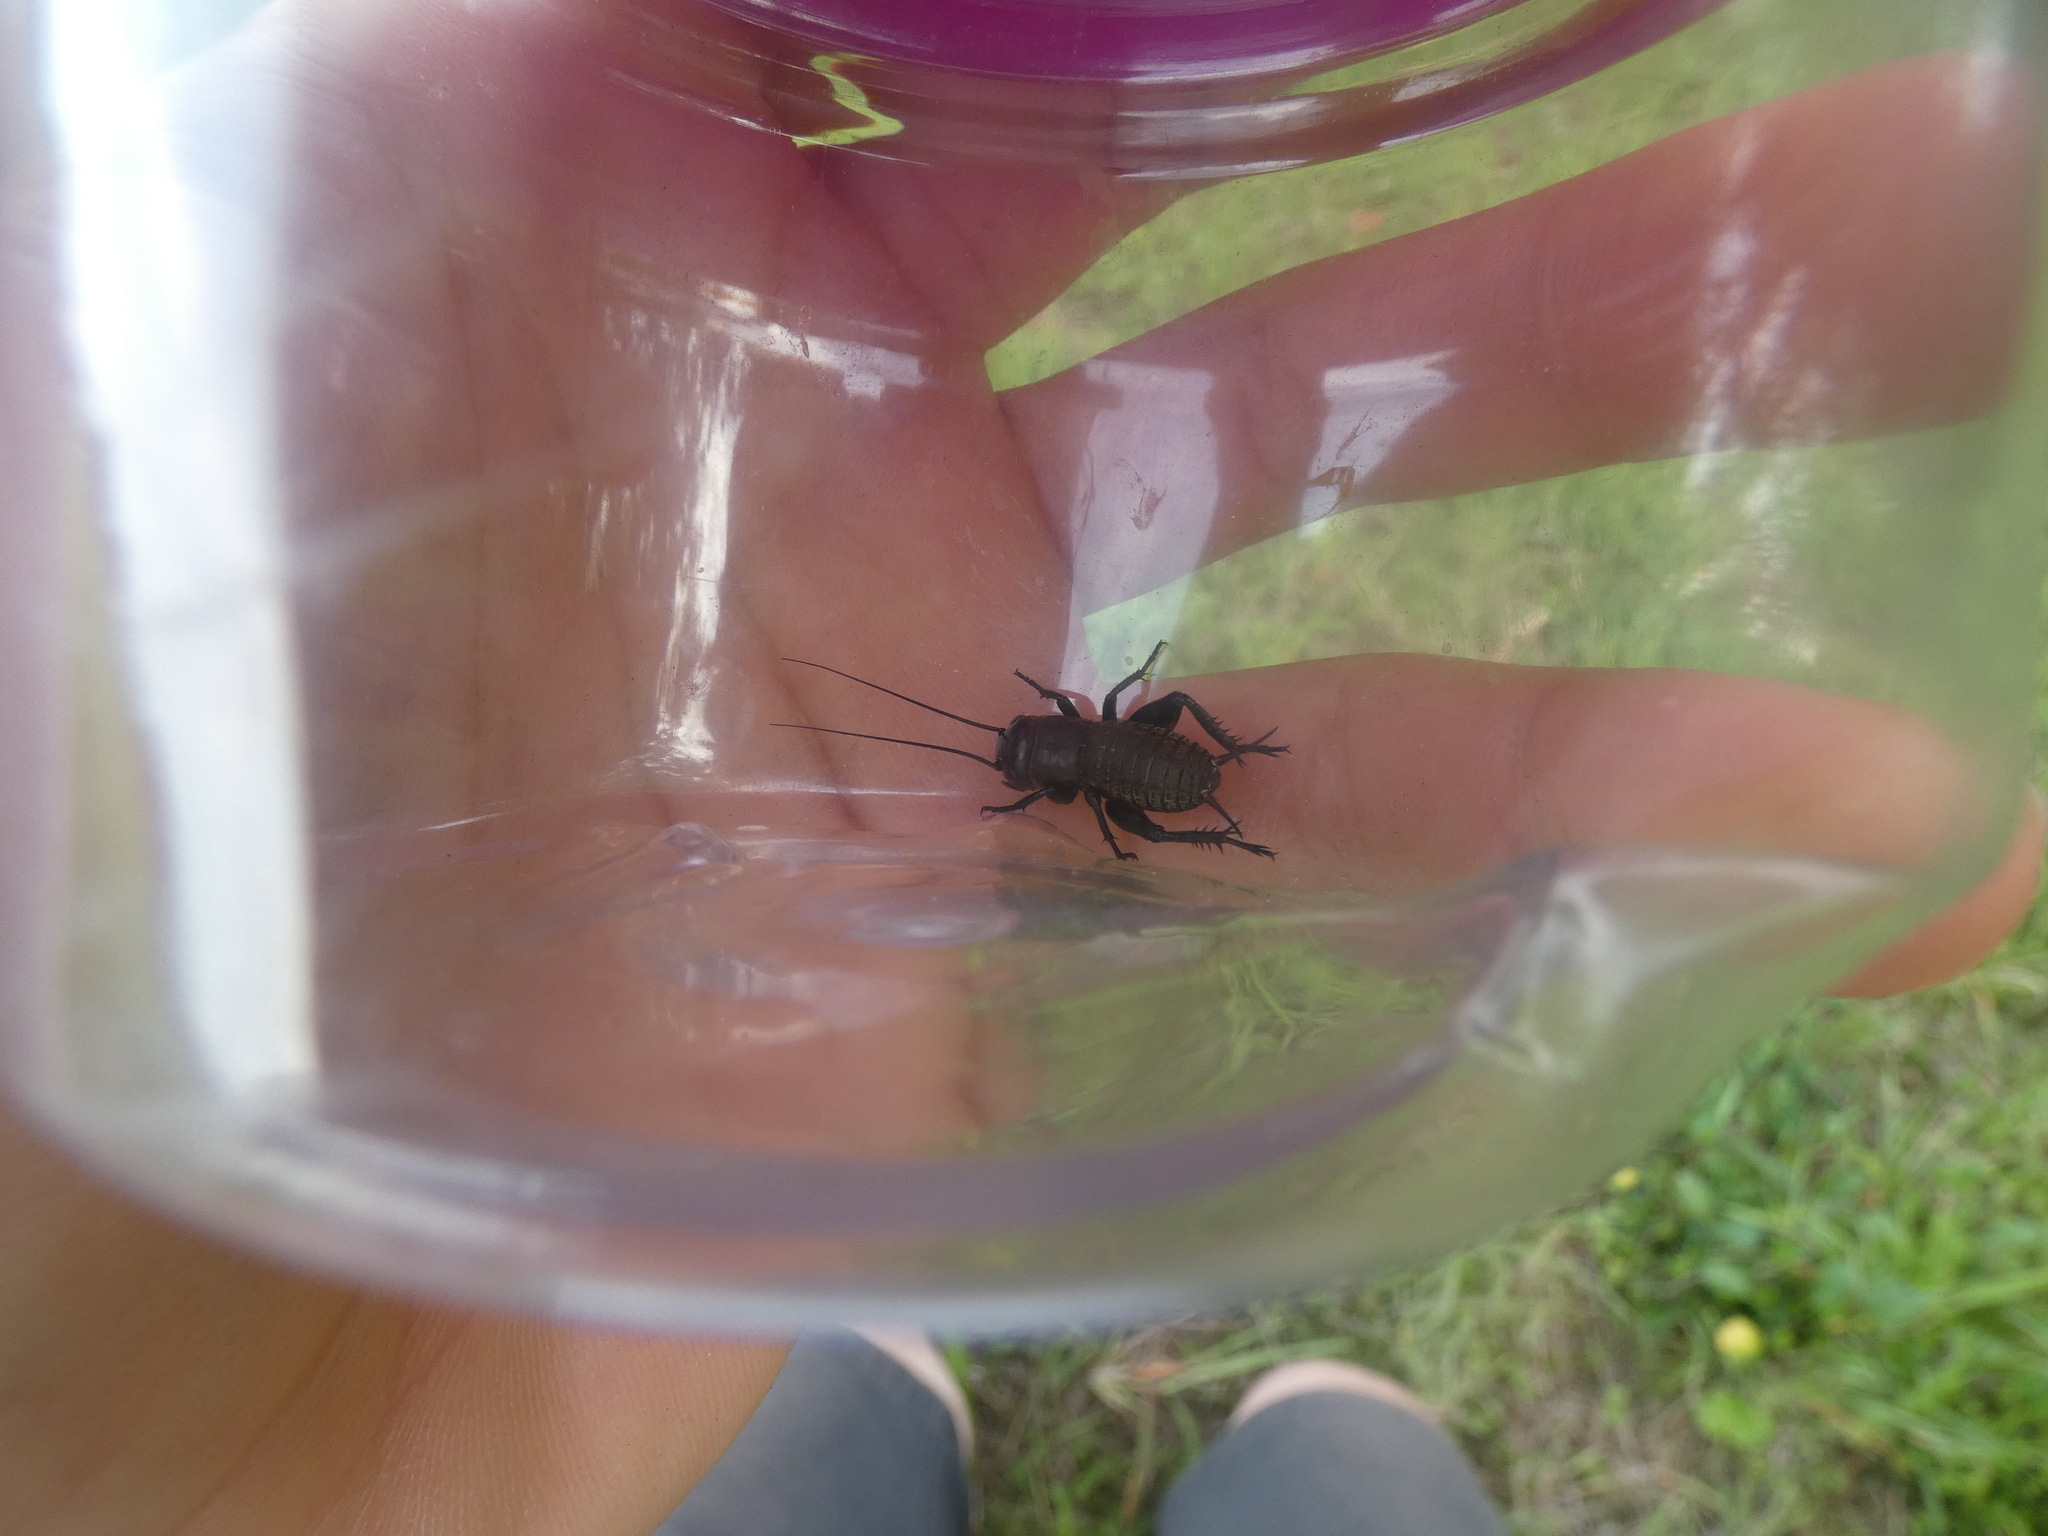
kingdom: Animalia
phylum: Arthropoda
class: Insecta
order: Orthoptera
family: Gryllidae
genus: Gryllus
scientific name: Gryllus campestris
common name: Field cricket
